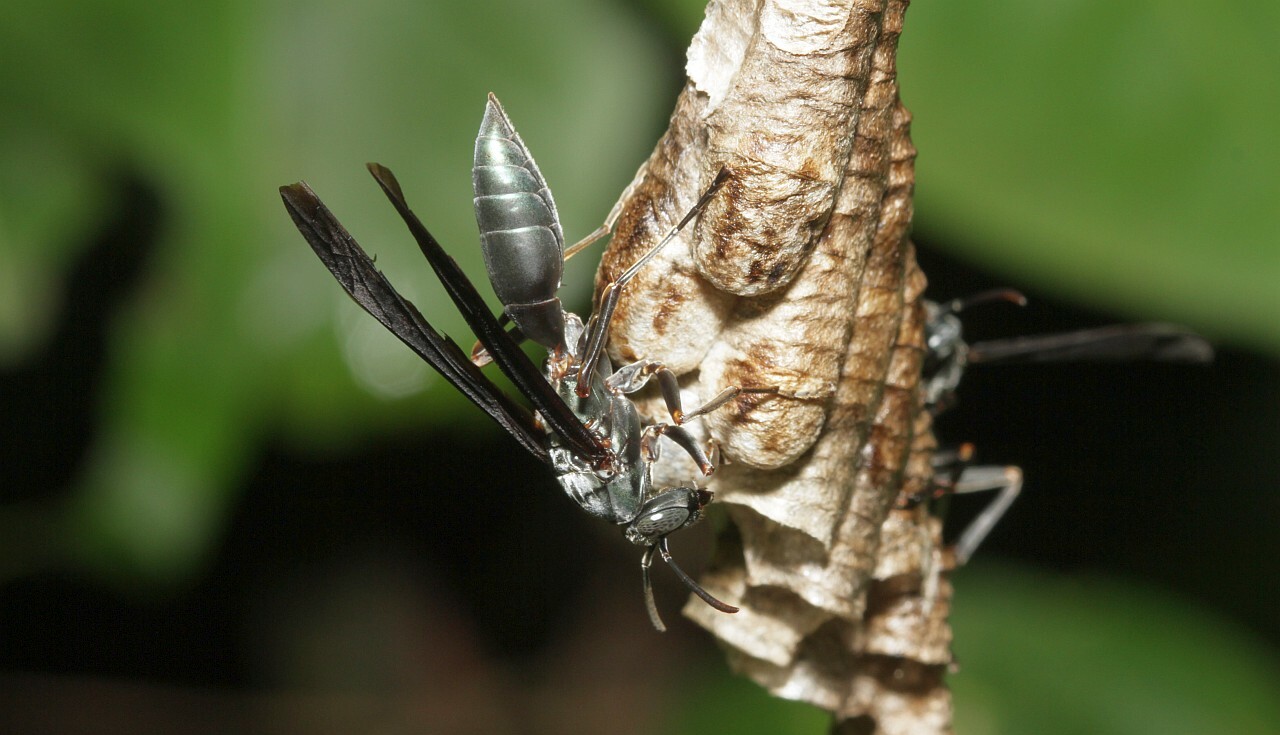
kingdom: Animalia
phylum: Arthropoda
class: Insecta
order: Hymenoptera
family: Eumenidae
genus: Polistes
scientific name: Polistes goeldii
